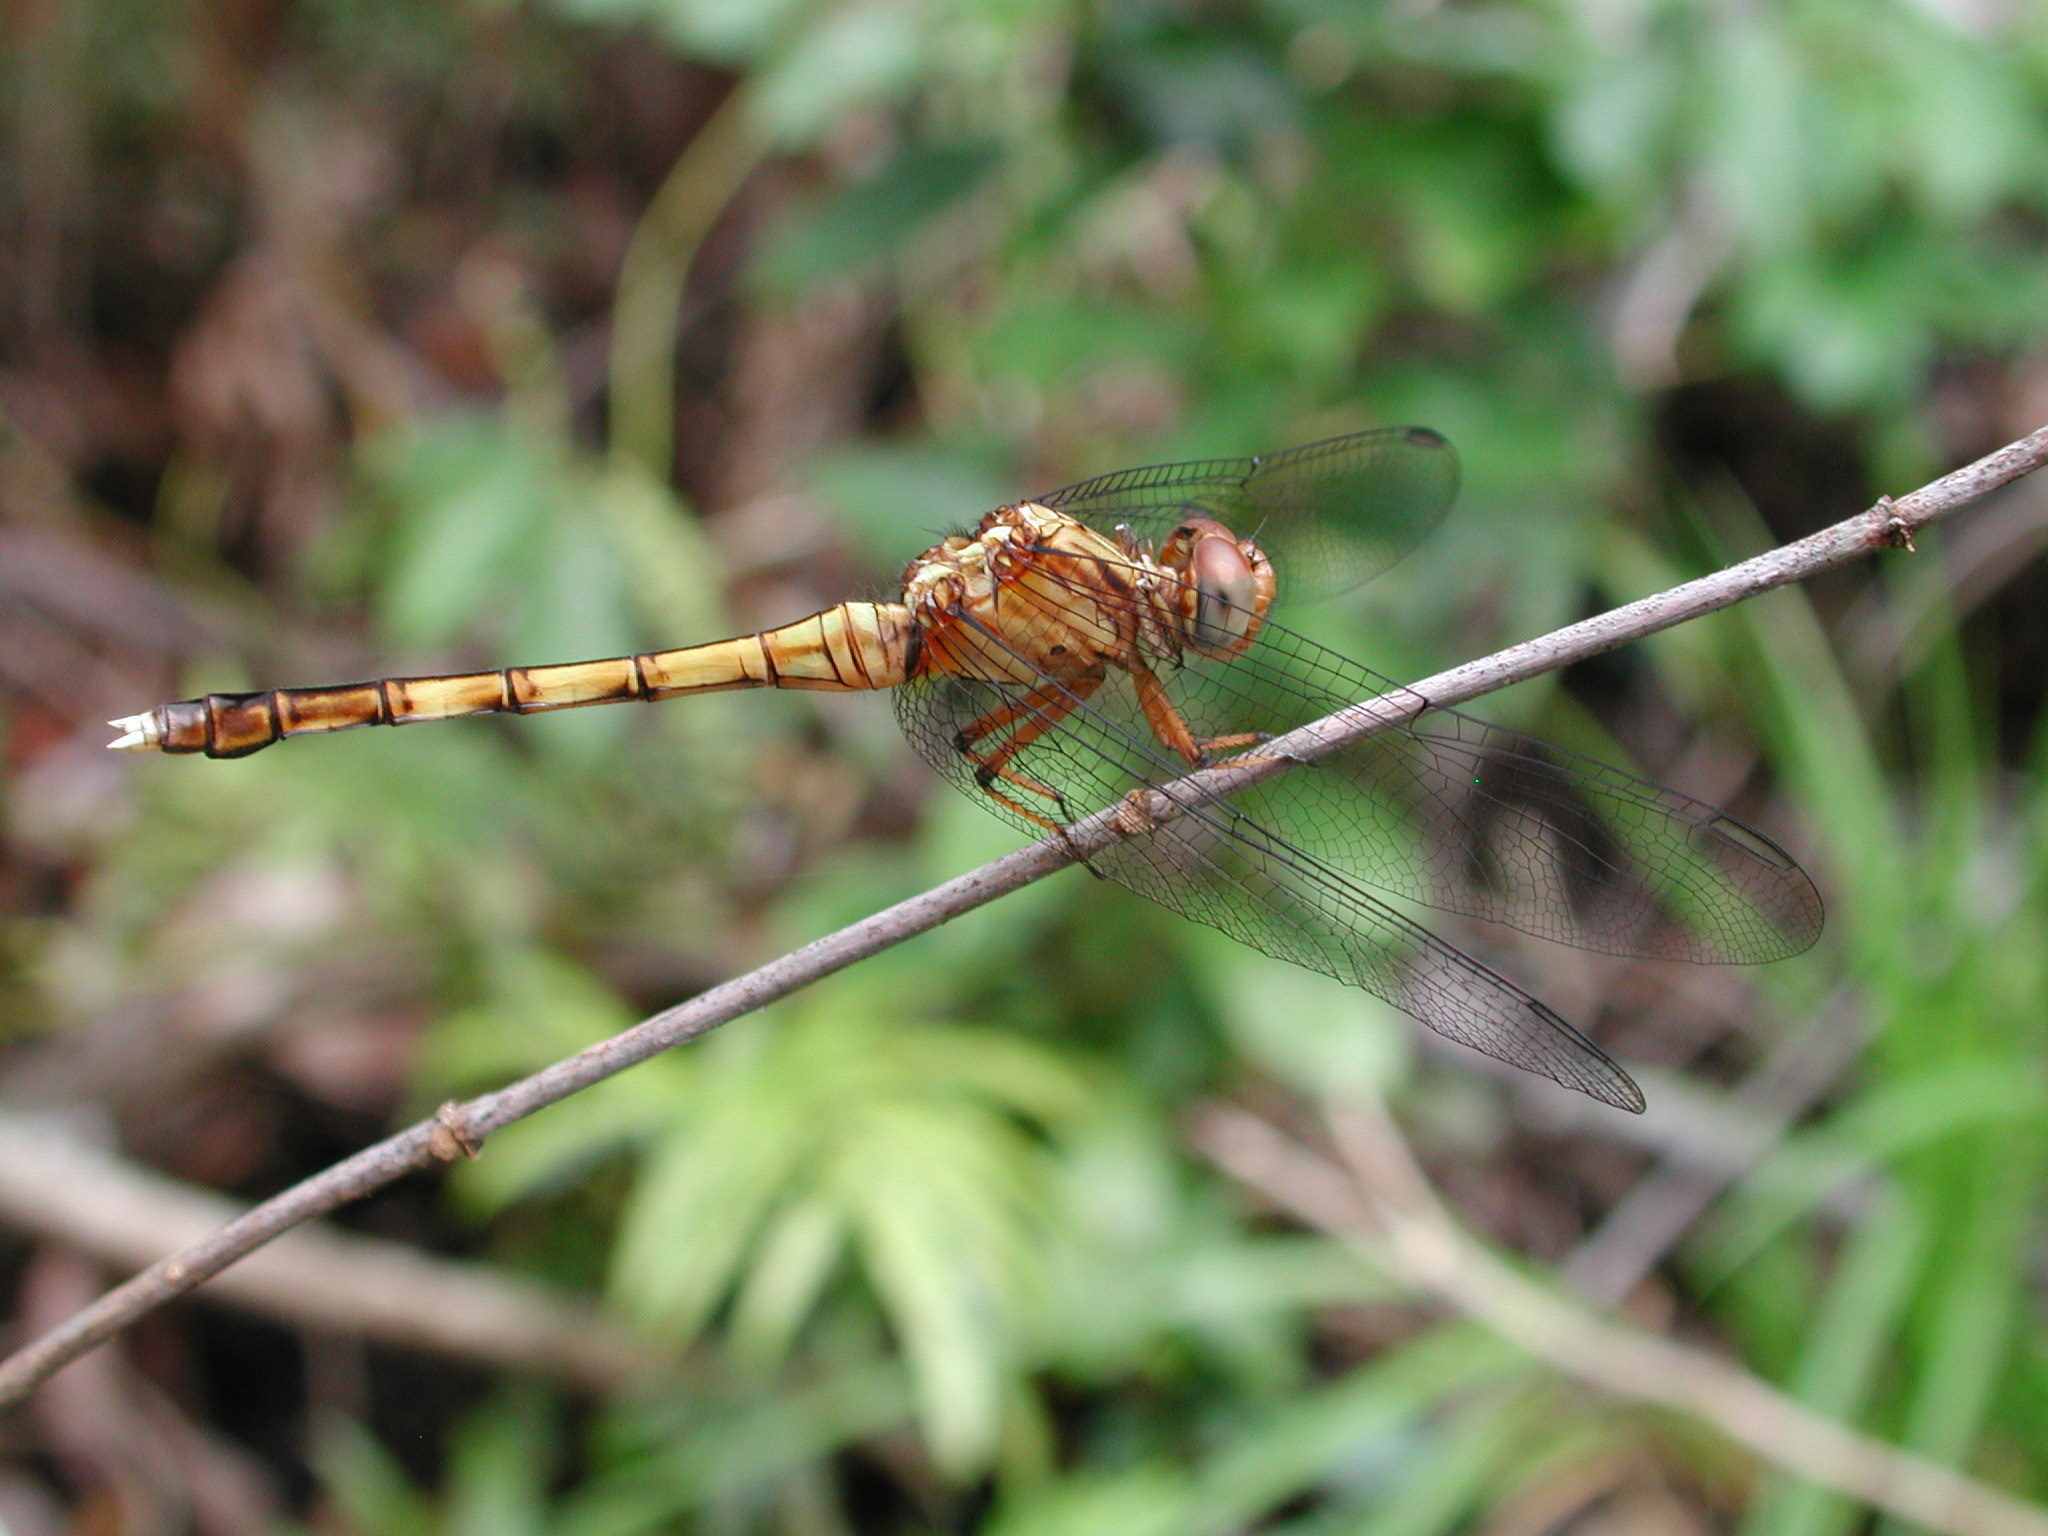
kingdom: Animalia
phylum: Arthropoda
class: Insecta
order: Odonata
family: Libellulidae
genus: Orthetrum
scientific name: Orthetrum julia
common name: Julia skimmer
